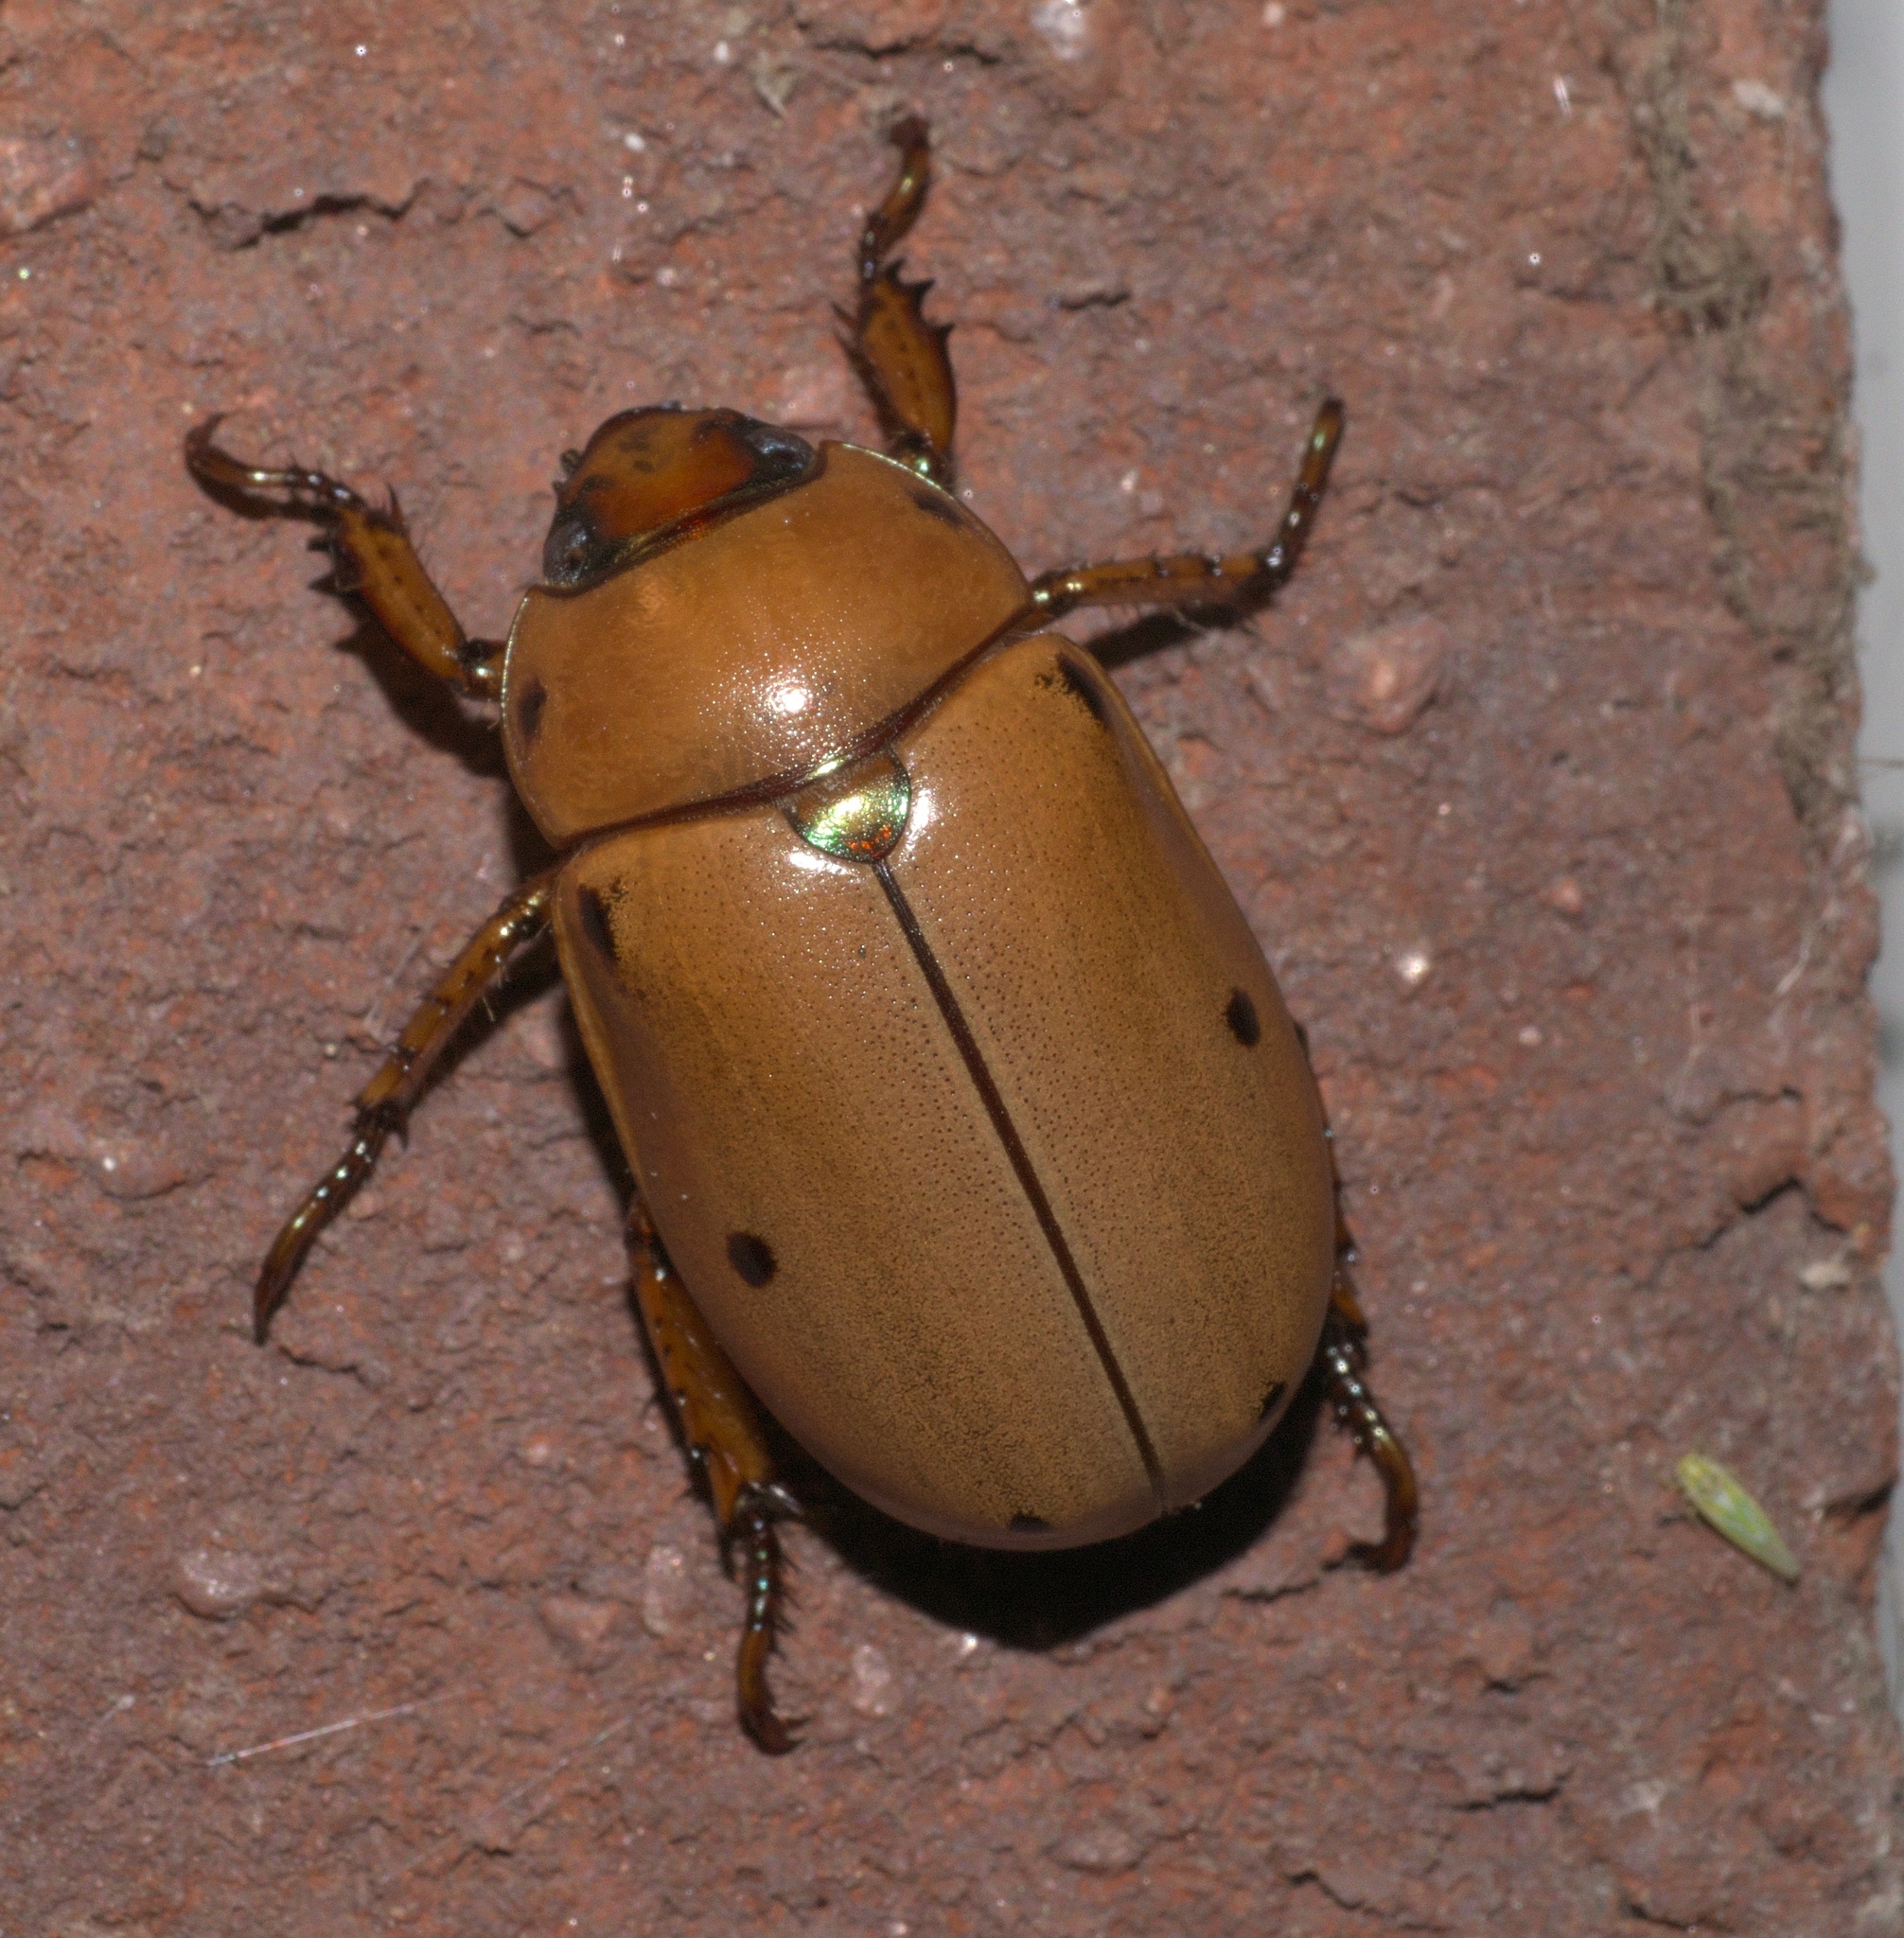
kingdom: Animalia
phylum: Arthropoda
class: Insecta
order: Coleoptera
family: Scarabaeidae
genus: Pelidnota
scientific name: Pelidnota punctata
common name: Grapevine beetle
